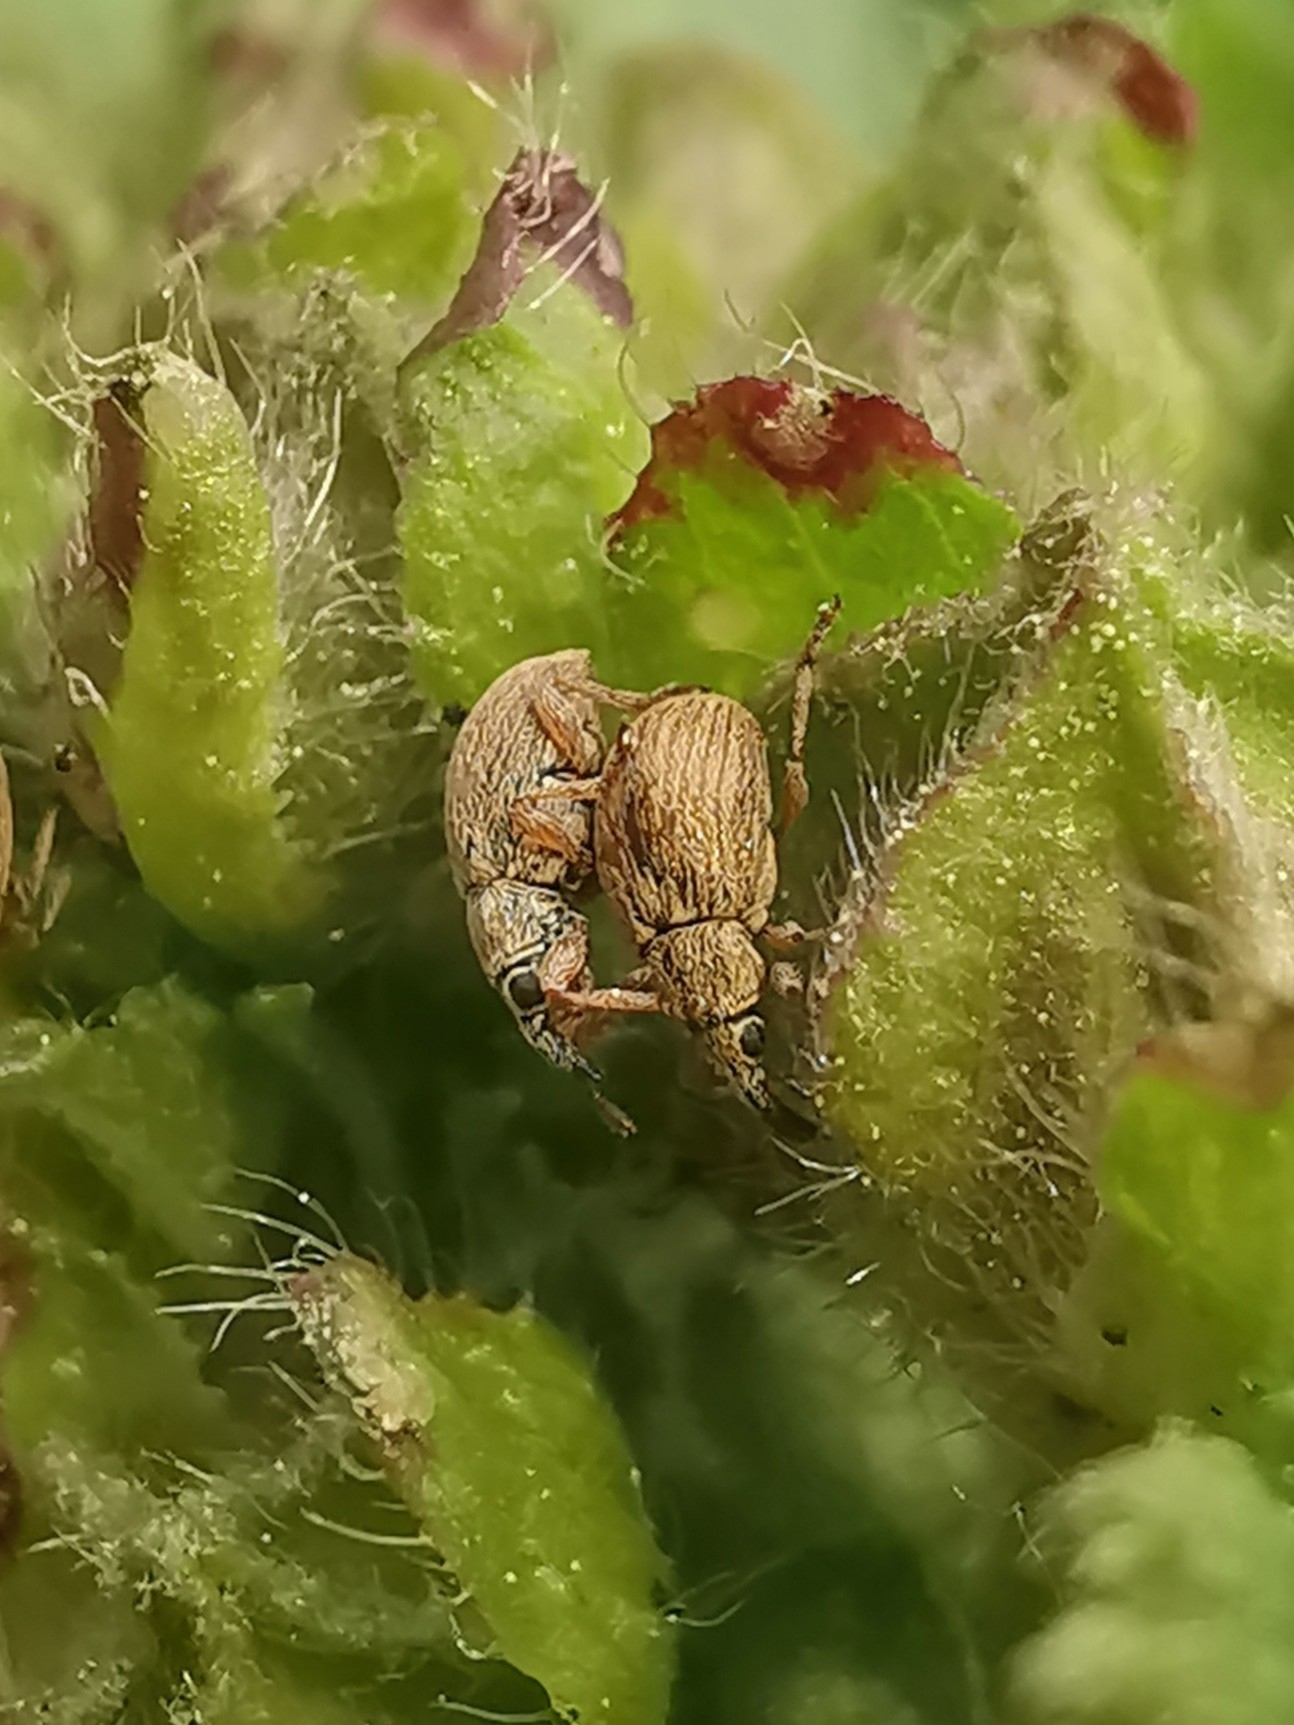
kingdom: Animalia
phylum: Arthropoda
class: Insecta
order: Coleoptera
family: Apionidae
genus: Malvapion
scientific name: Malvapion malvae
